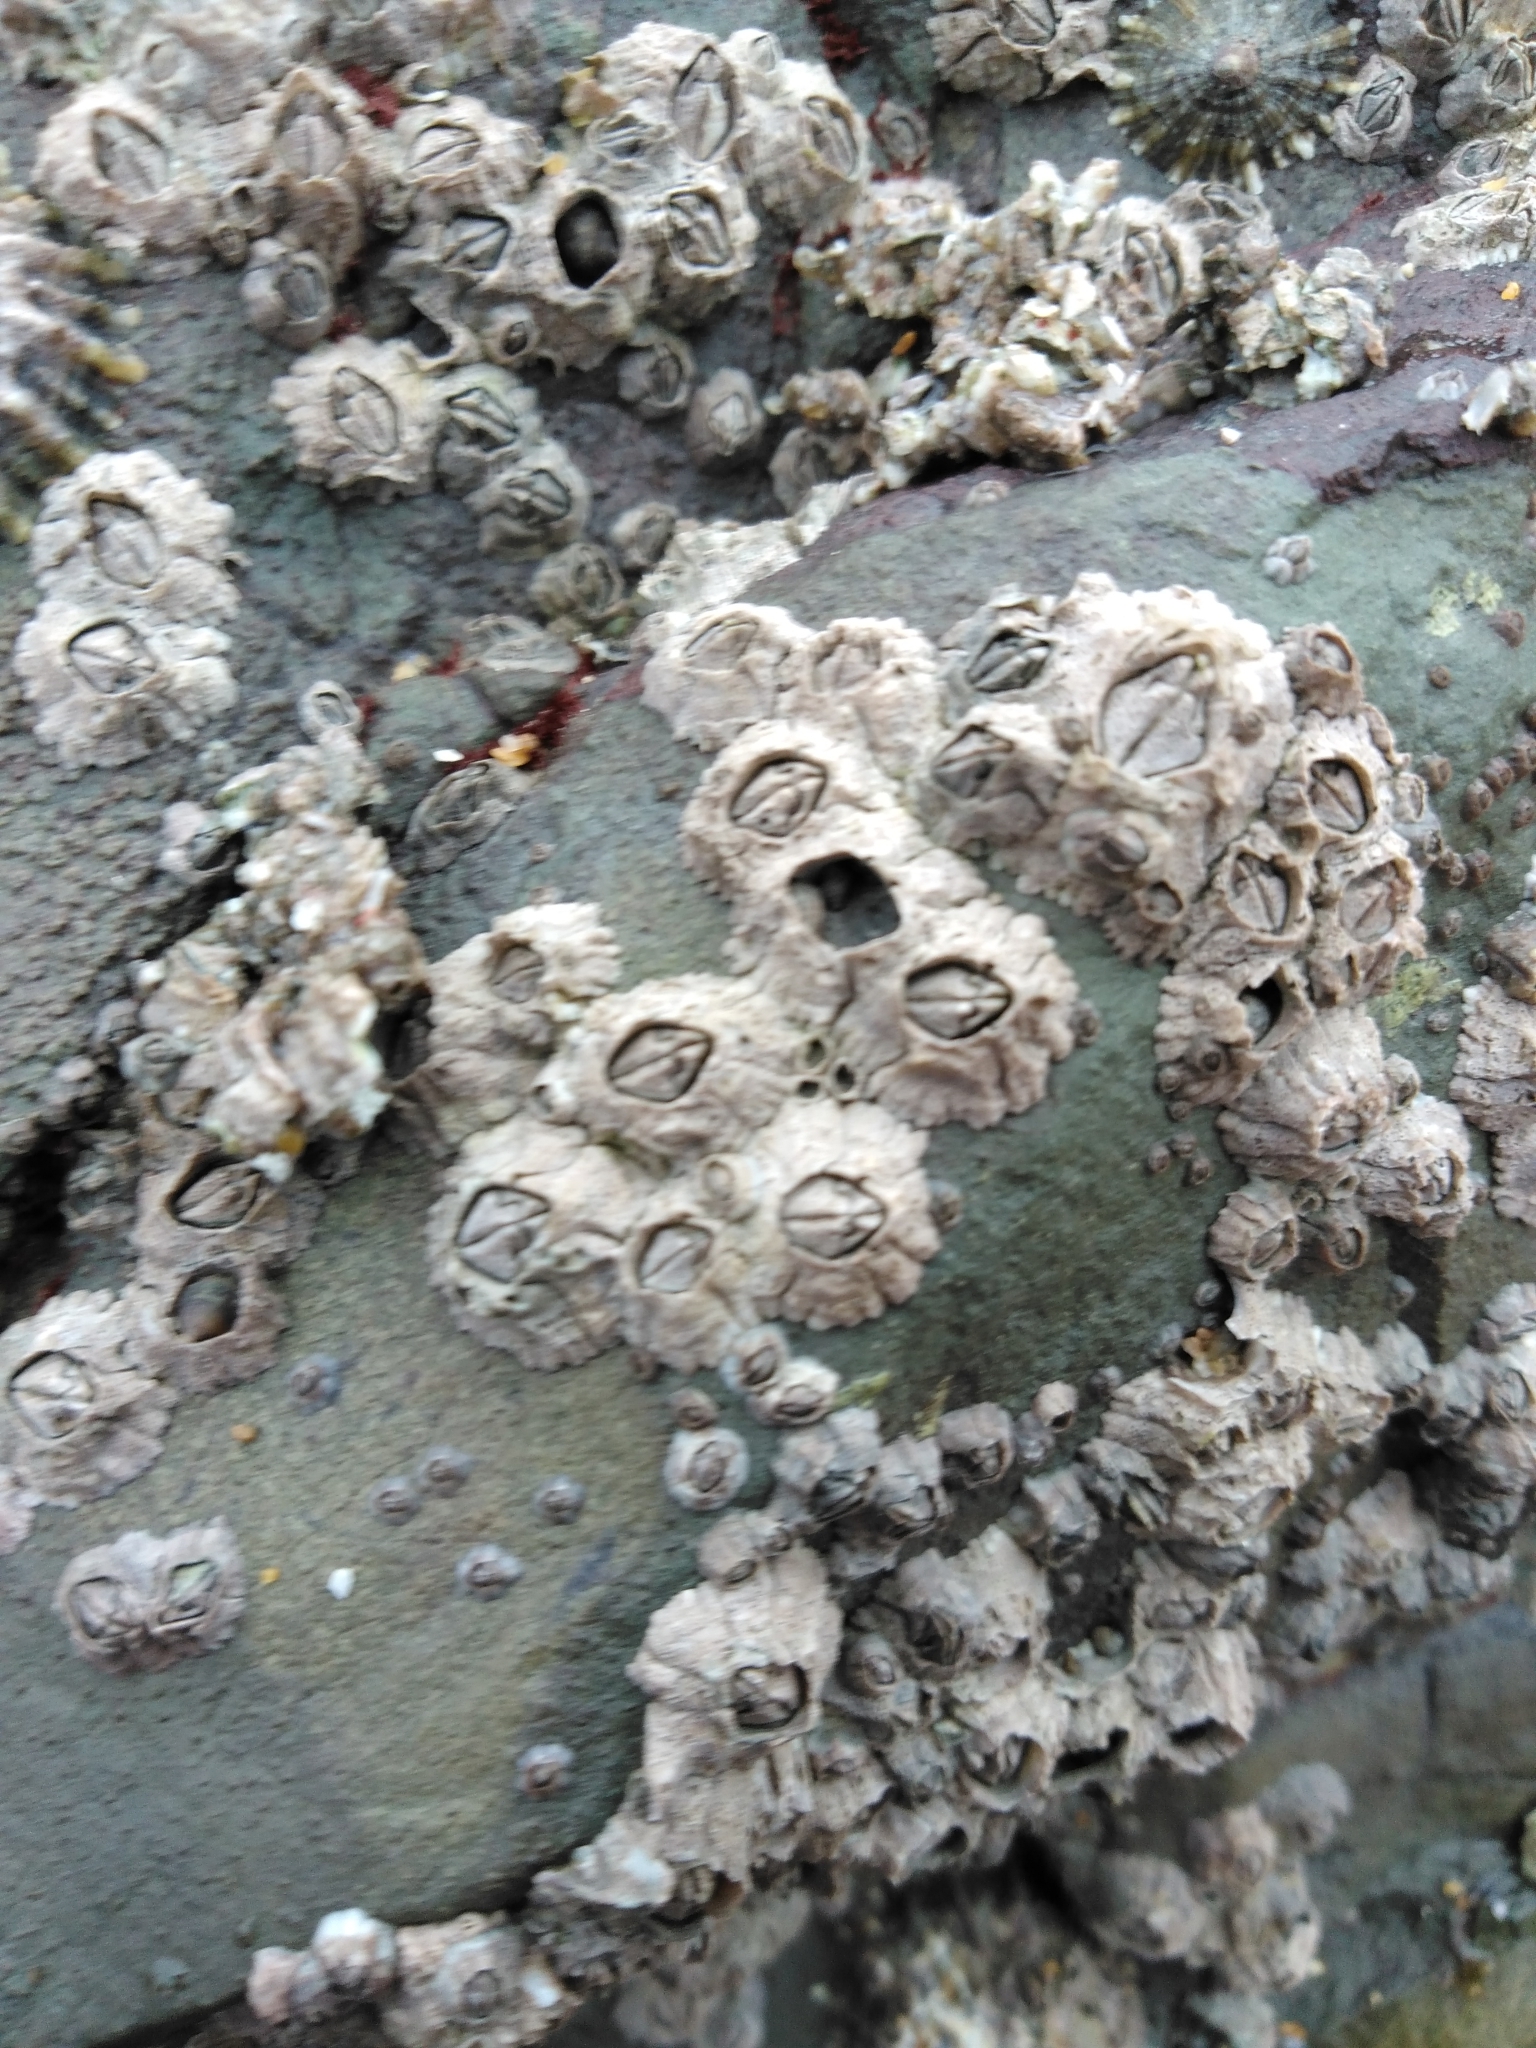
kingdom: Animalia
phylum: Arthropoda
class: Maxillopoda
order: Sessilia
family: Archaeobalanidae
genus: Semibalanus
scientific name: Semibalanus balanoides
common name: Acorn barnacle
